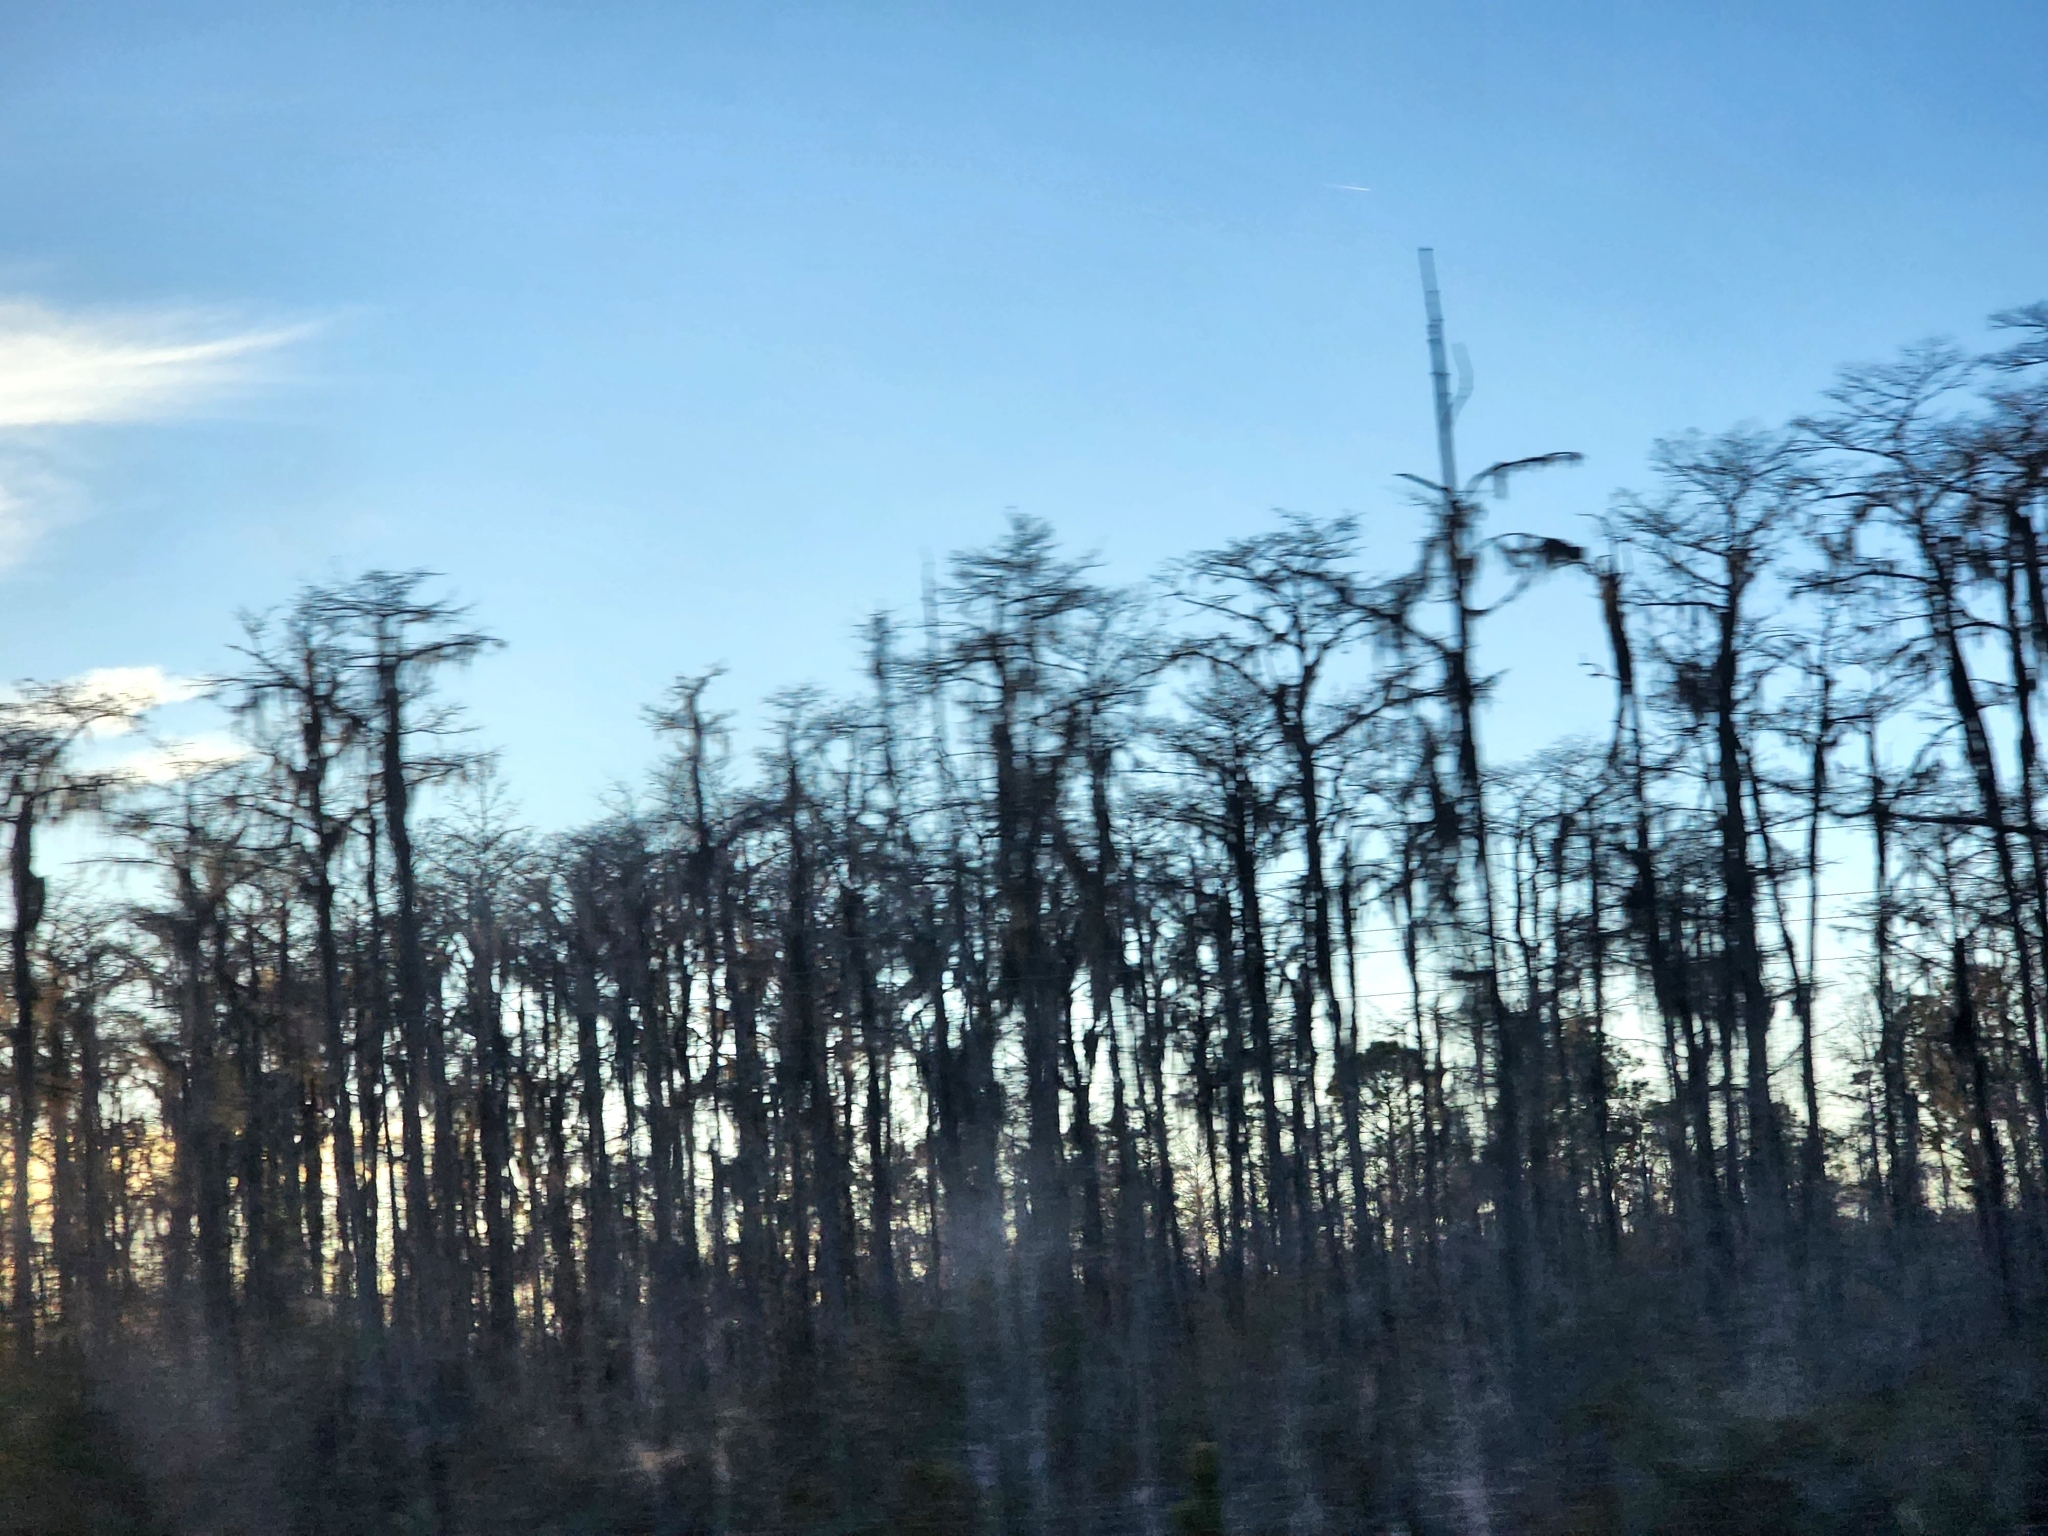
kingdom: Plantae
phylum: Tracheophyta
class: Liliopsida
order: Poales
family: Bromeliaceae
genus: Tillandsia
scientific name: Tillandsia usneoides
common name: Spanish moss
